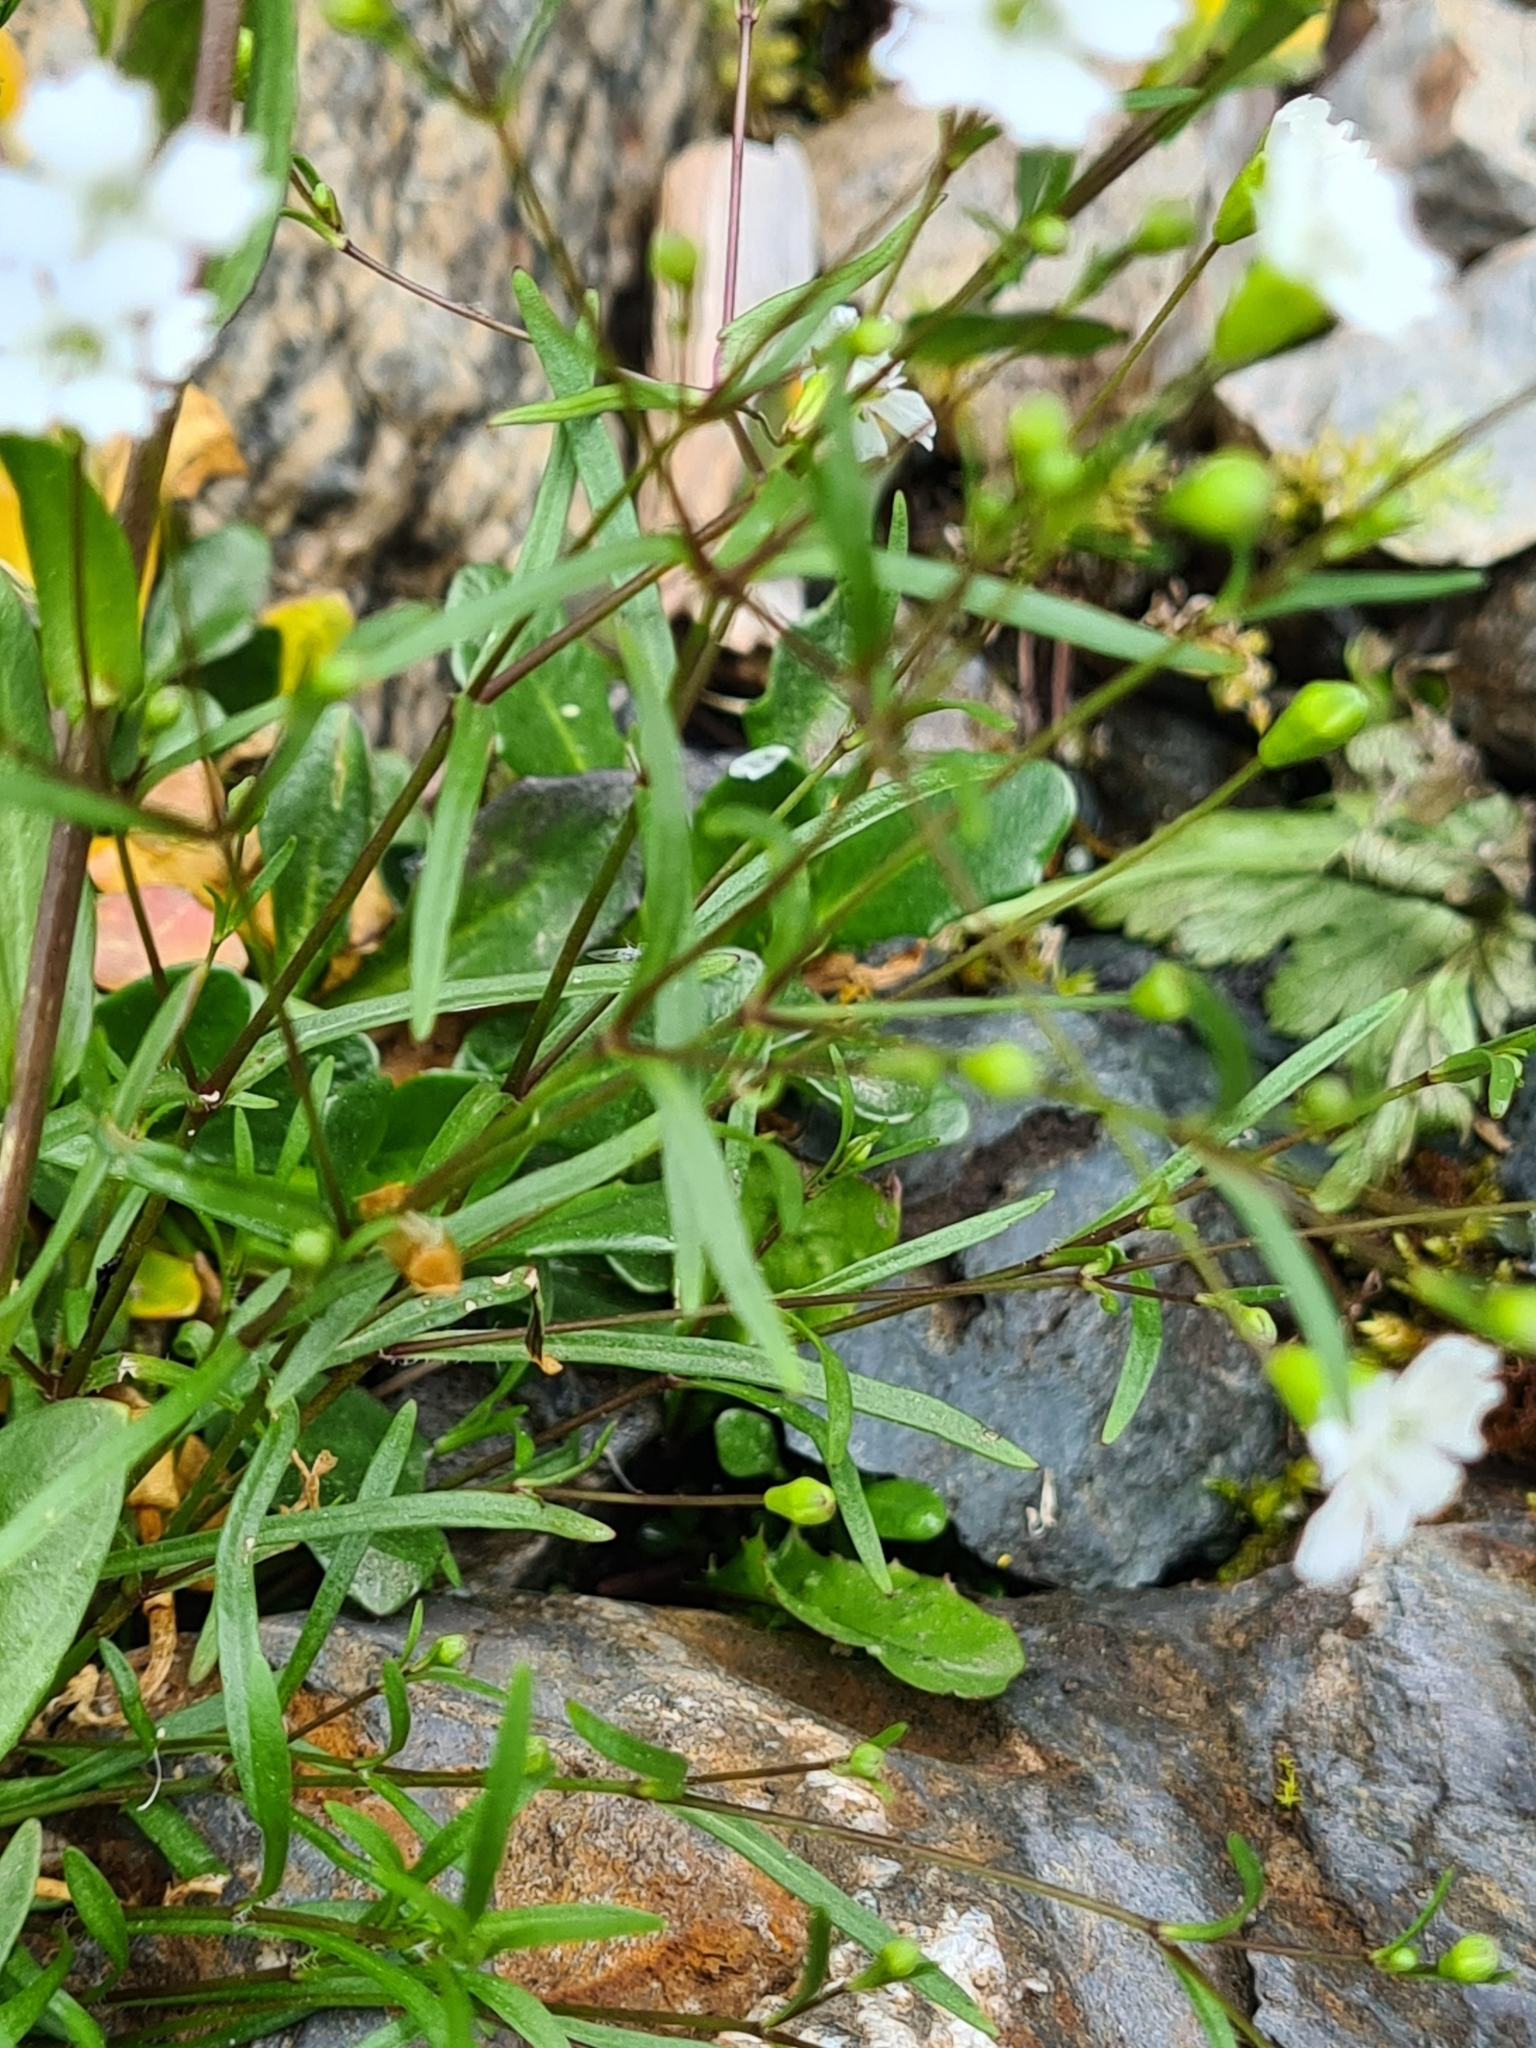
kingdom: Plantae
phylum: Tracheophyta
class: Magnoliopsida
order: Caryophyllales
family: Caryophyllaceae
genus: Heliosperma
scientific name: Heliosperma pusillum
